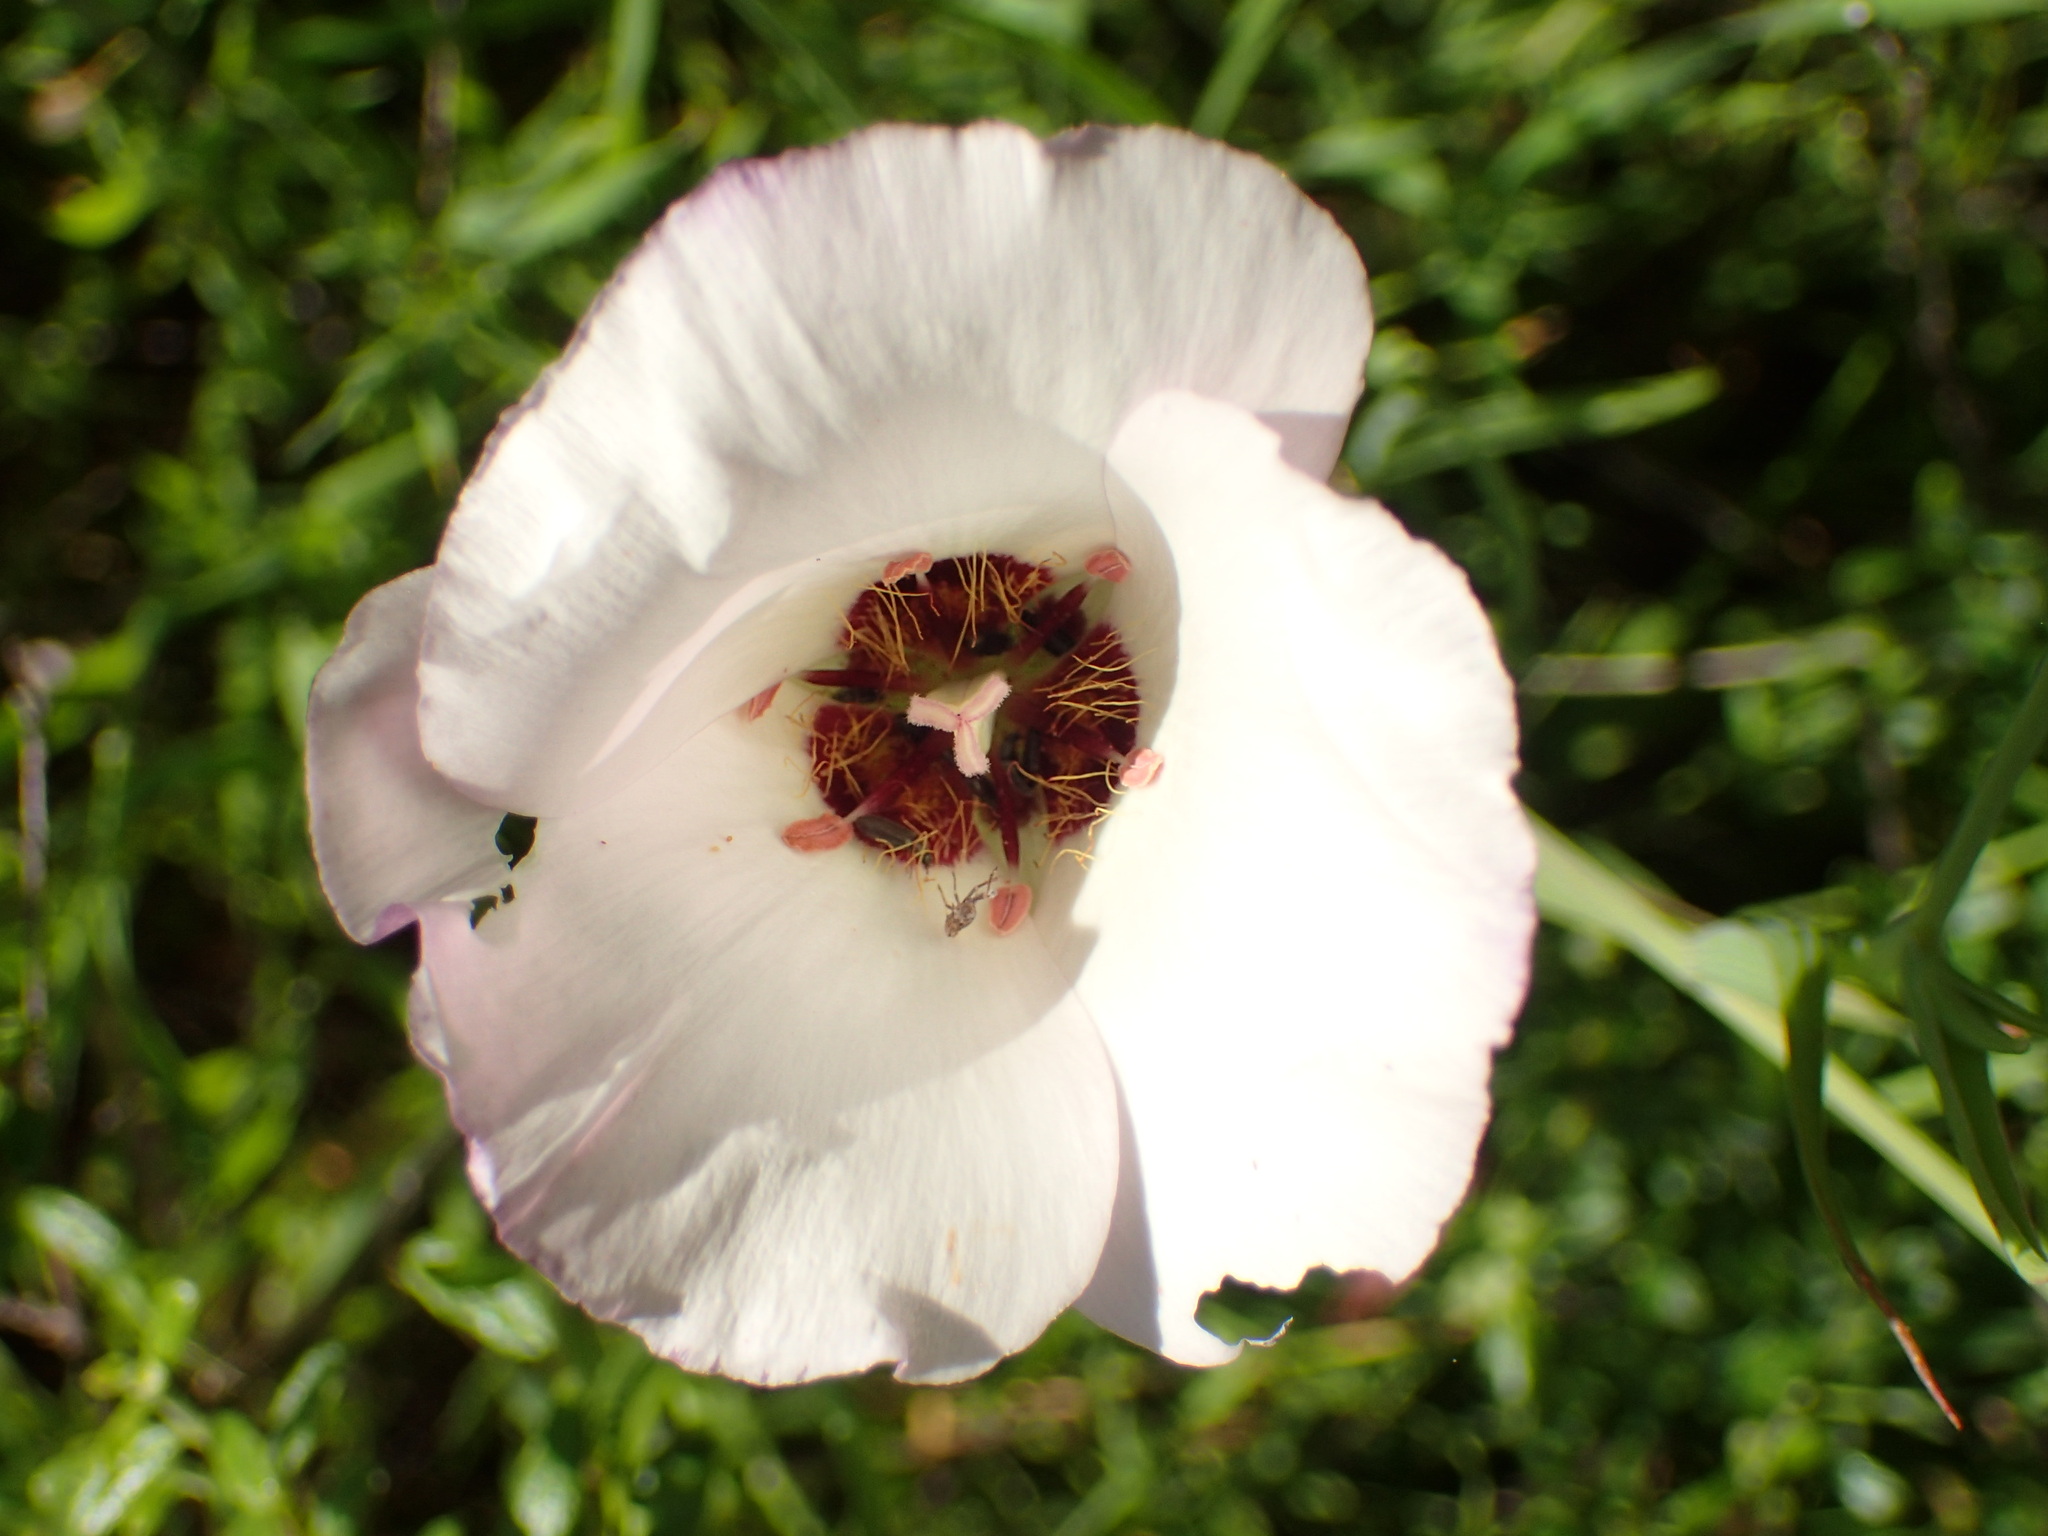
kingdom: Plantae
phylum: Tracheophyta
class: Liliopsida
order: Liliales
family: Liliaceae
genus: Calochortus
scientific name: Calochortus catalinae
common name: Catalina mariposa-lily
